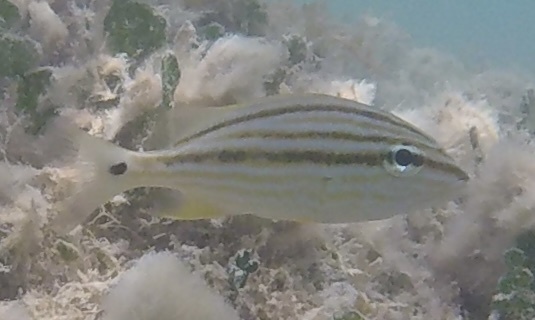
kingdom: Animalia
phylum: Chordata
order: Perciformes
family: Haemulidae
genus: Haemulon
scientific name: Haemulon sciurus
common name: Bluestriped grunt
